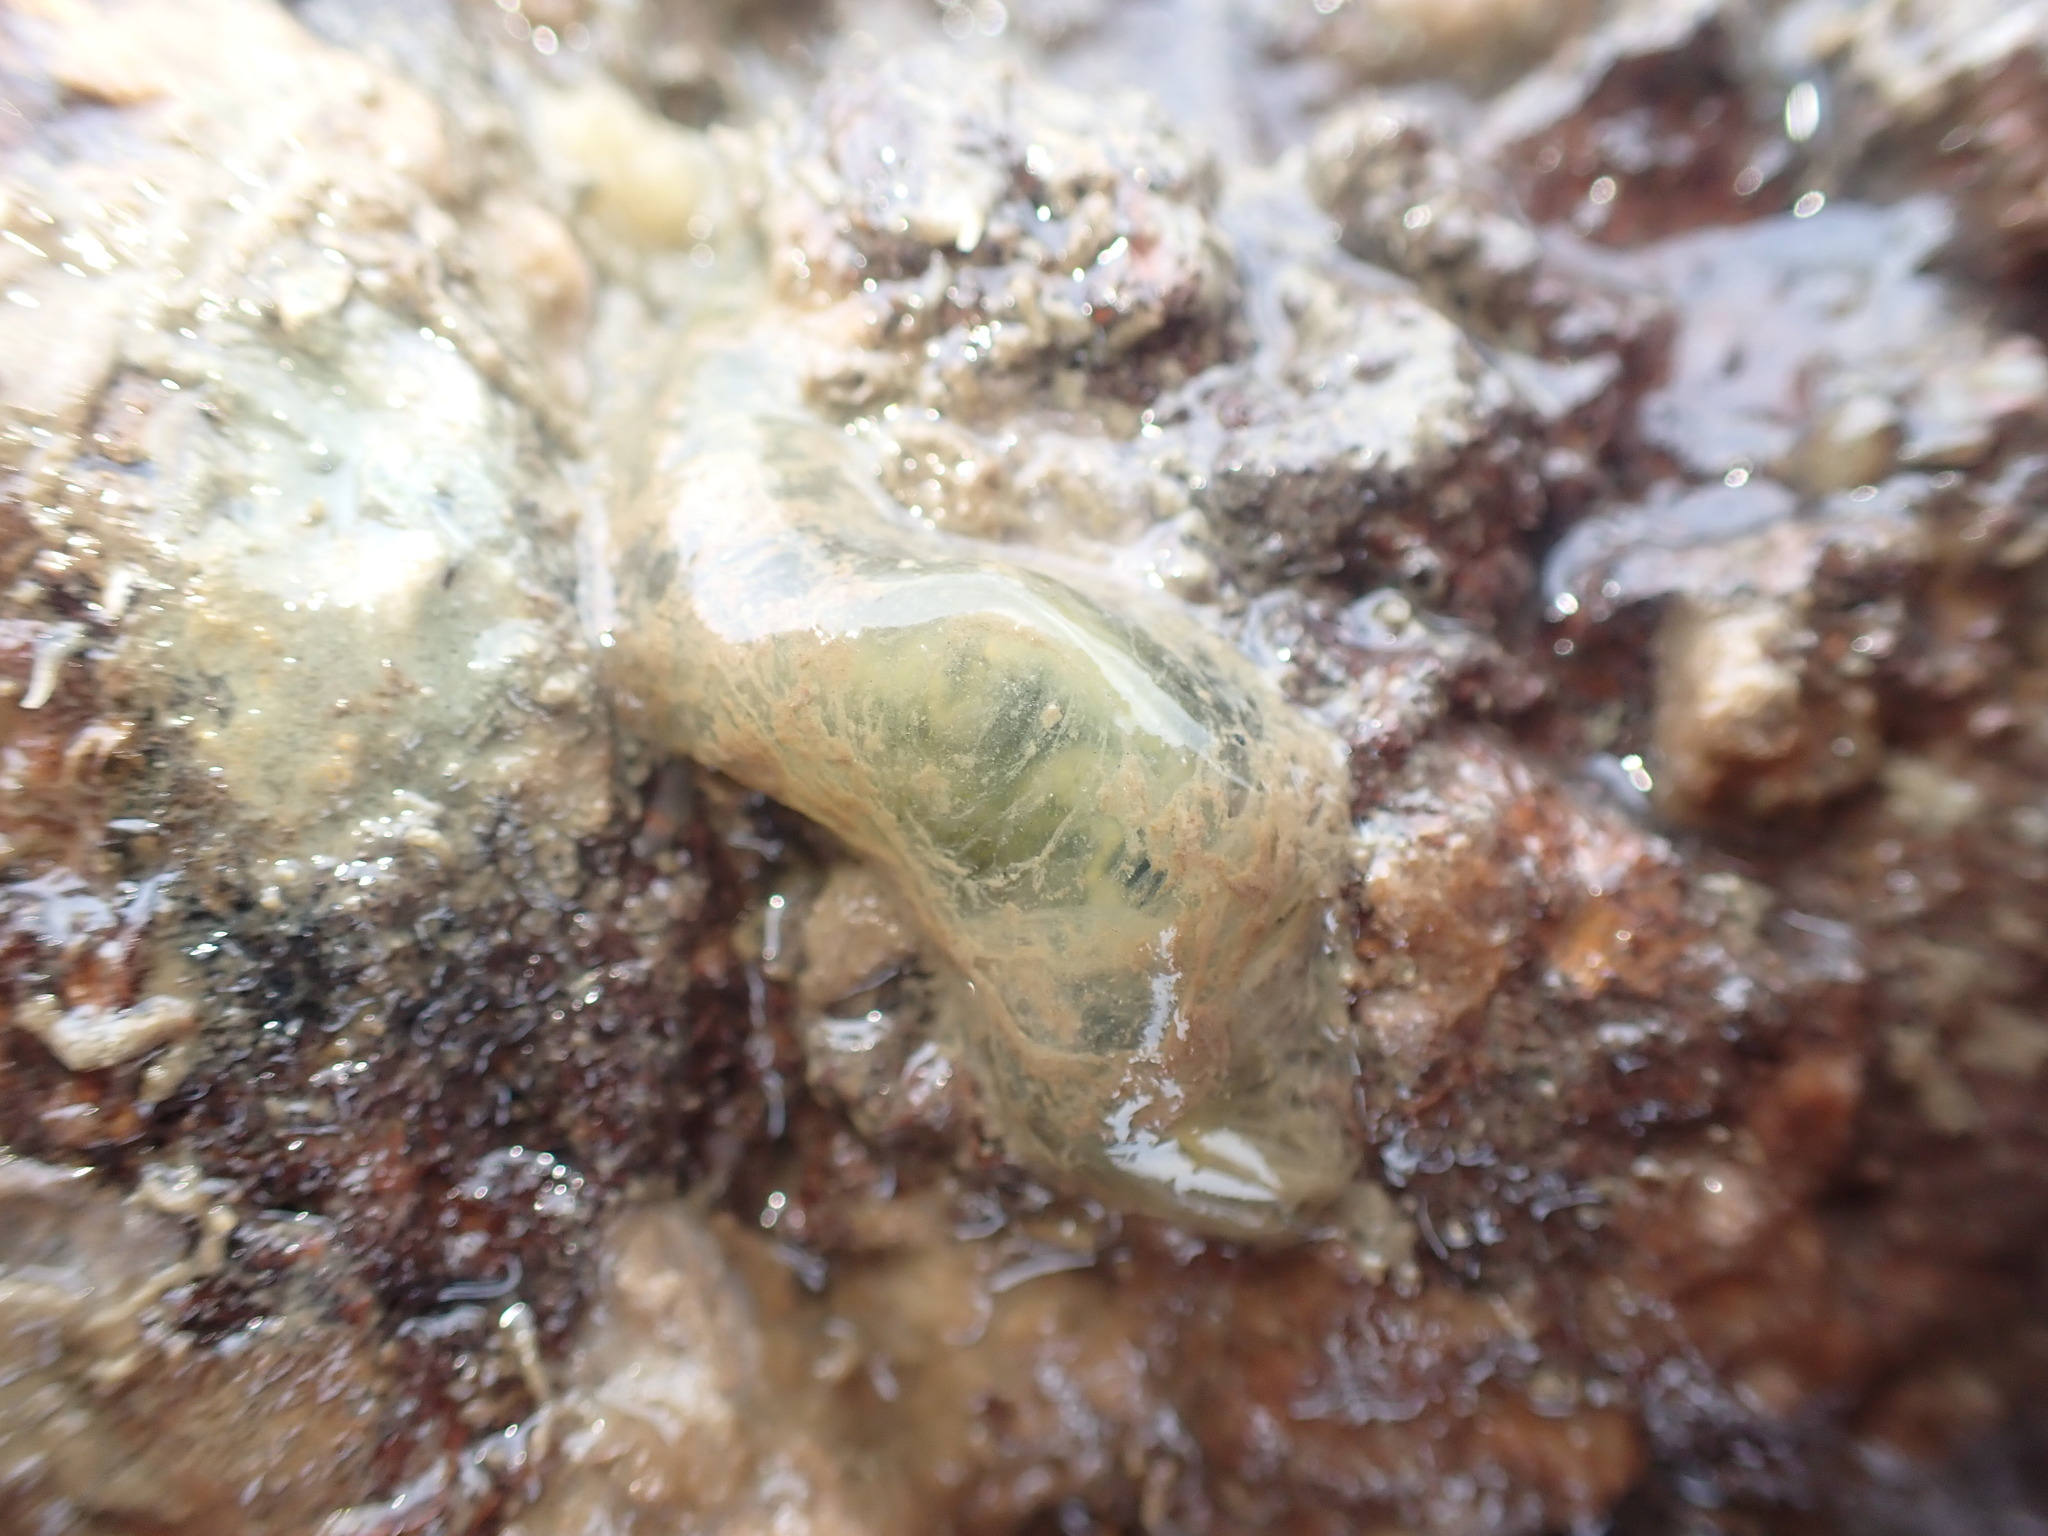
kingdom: Animalia
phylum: Annelida
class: Polychaeta
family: Flabelligeridae
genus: Flabelligera
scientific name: Flabelligera bicolor
